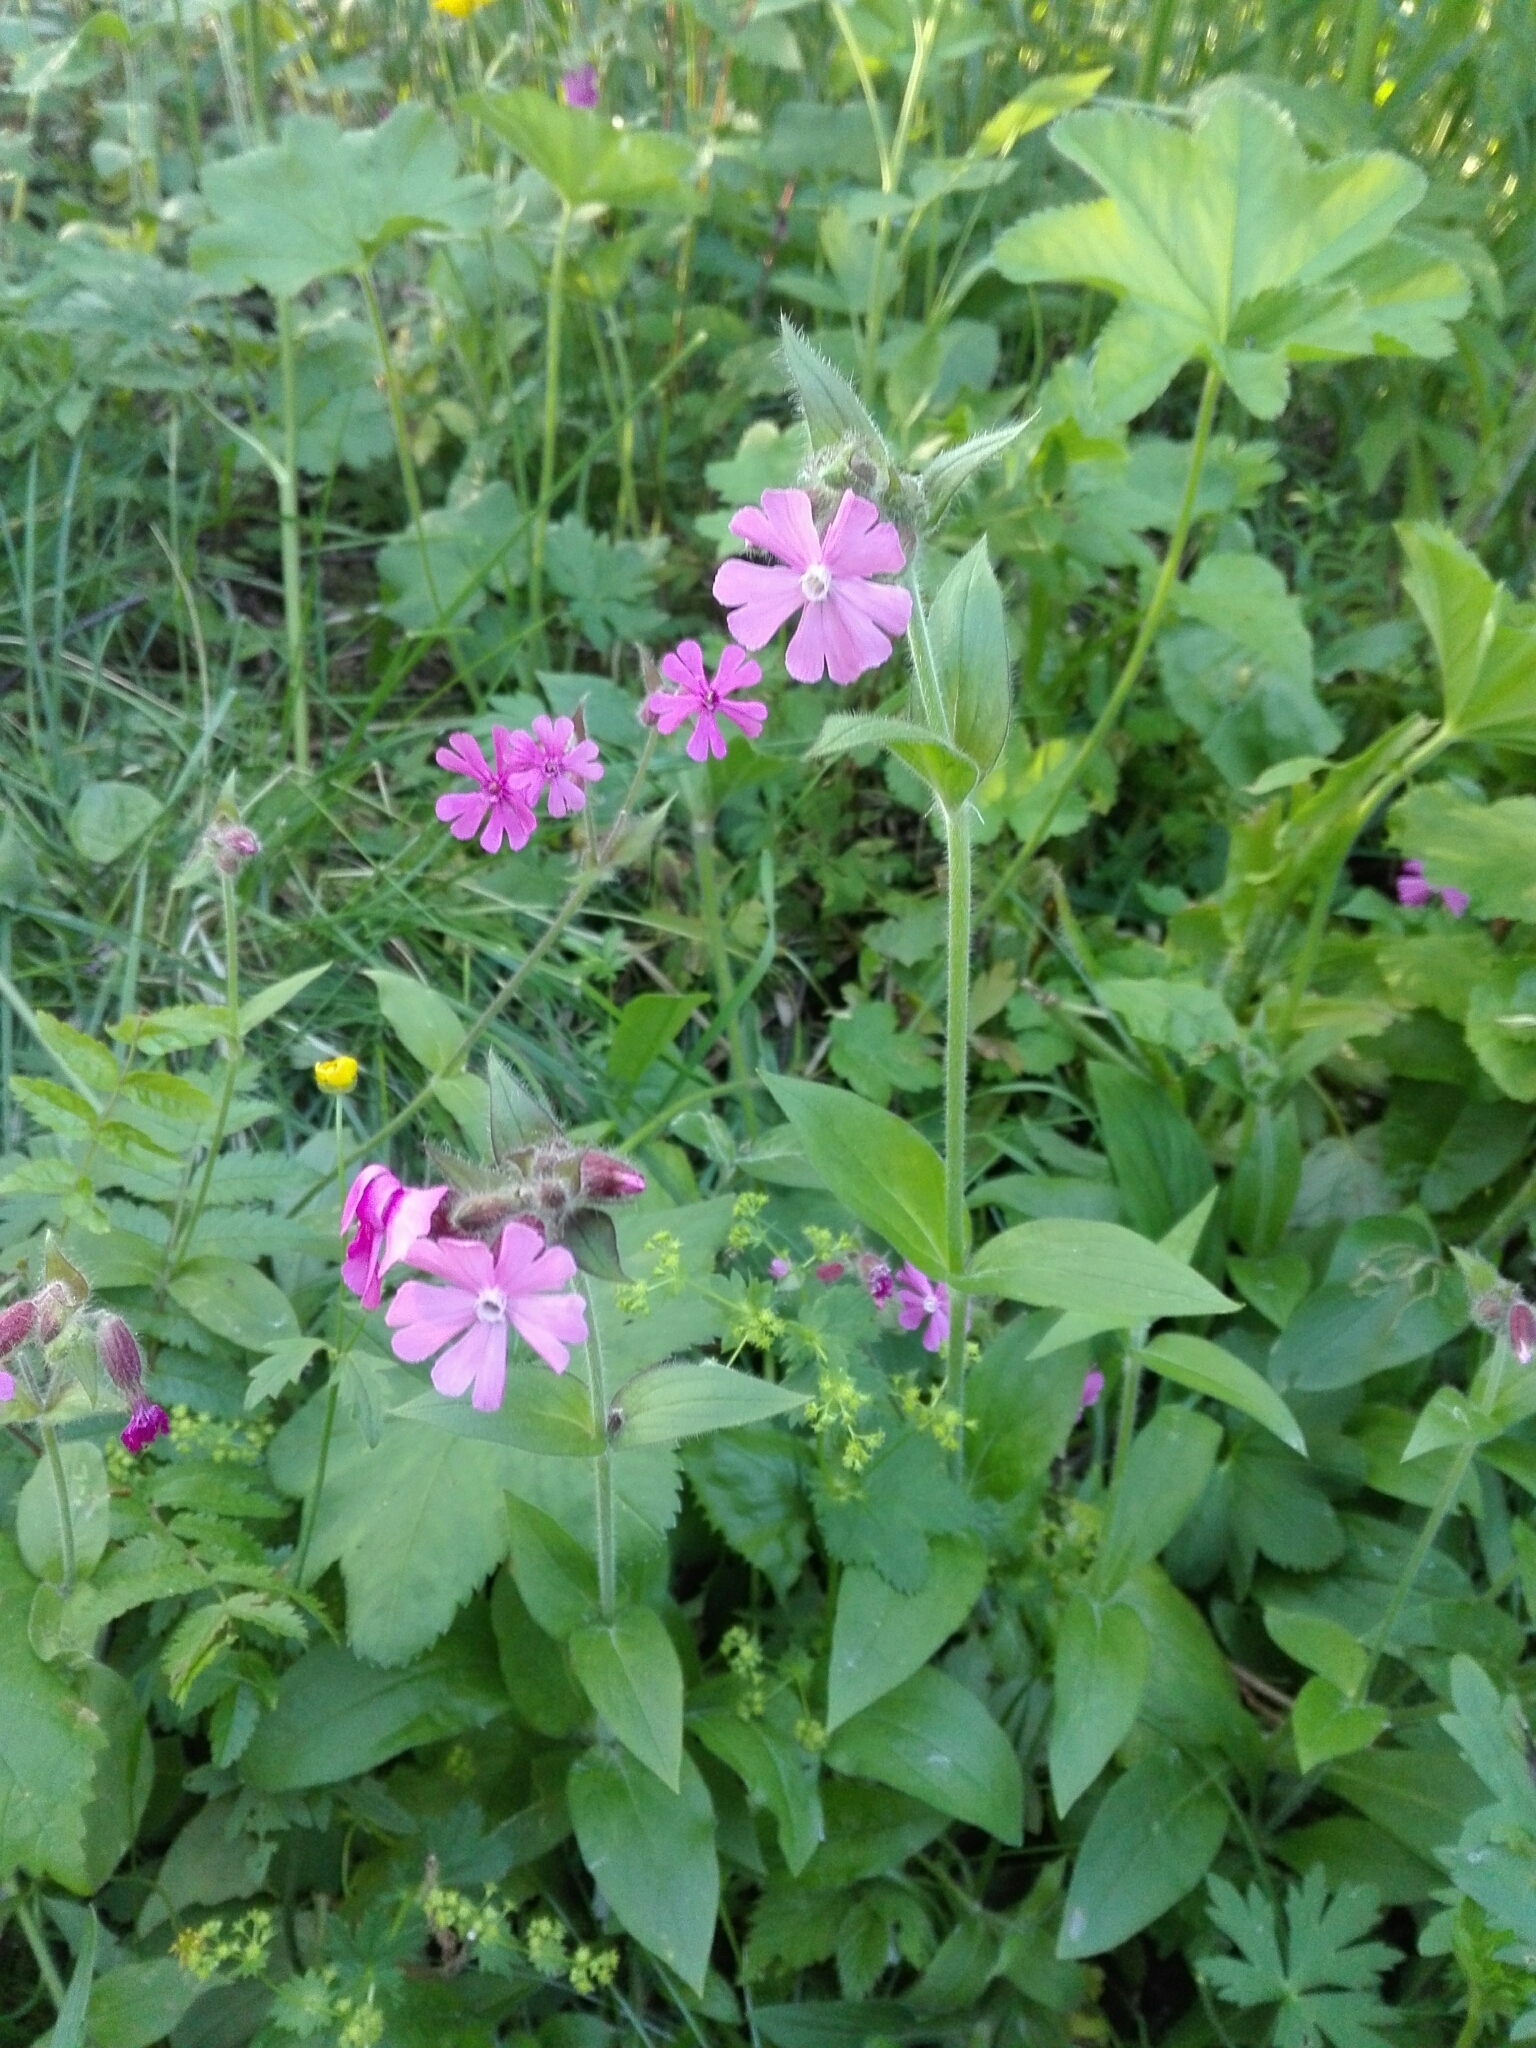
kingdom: Plantae
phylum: Tracheophyta
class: Magnoliopsida
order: Caryophyllales
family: Caryophyllaceae
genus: Silene
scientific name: Silene dioica
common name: Red campion
